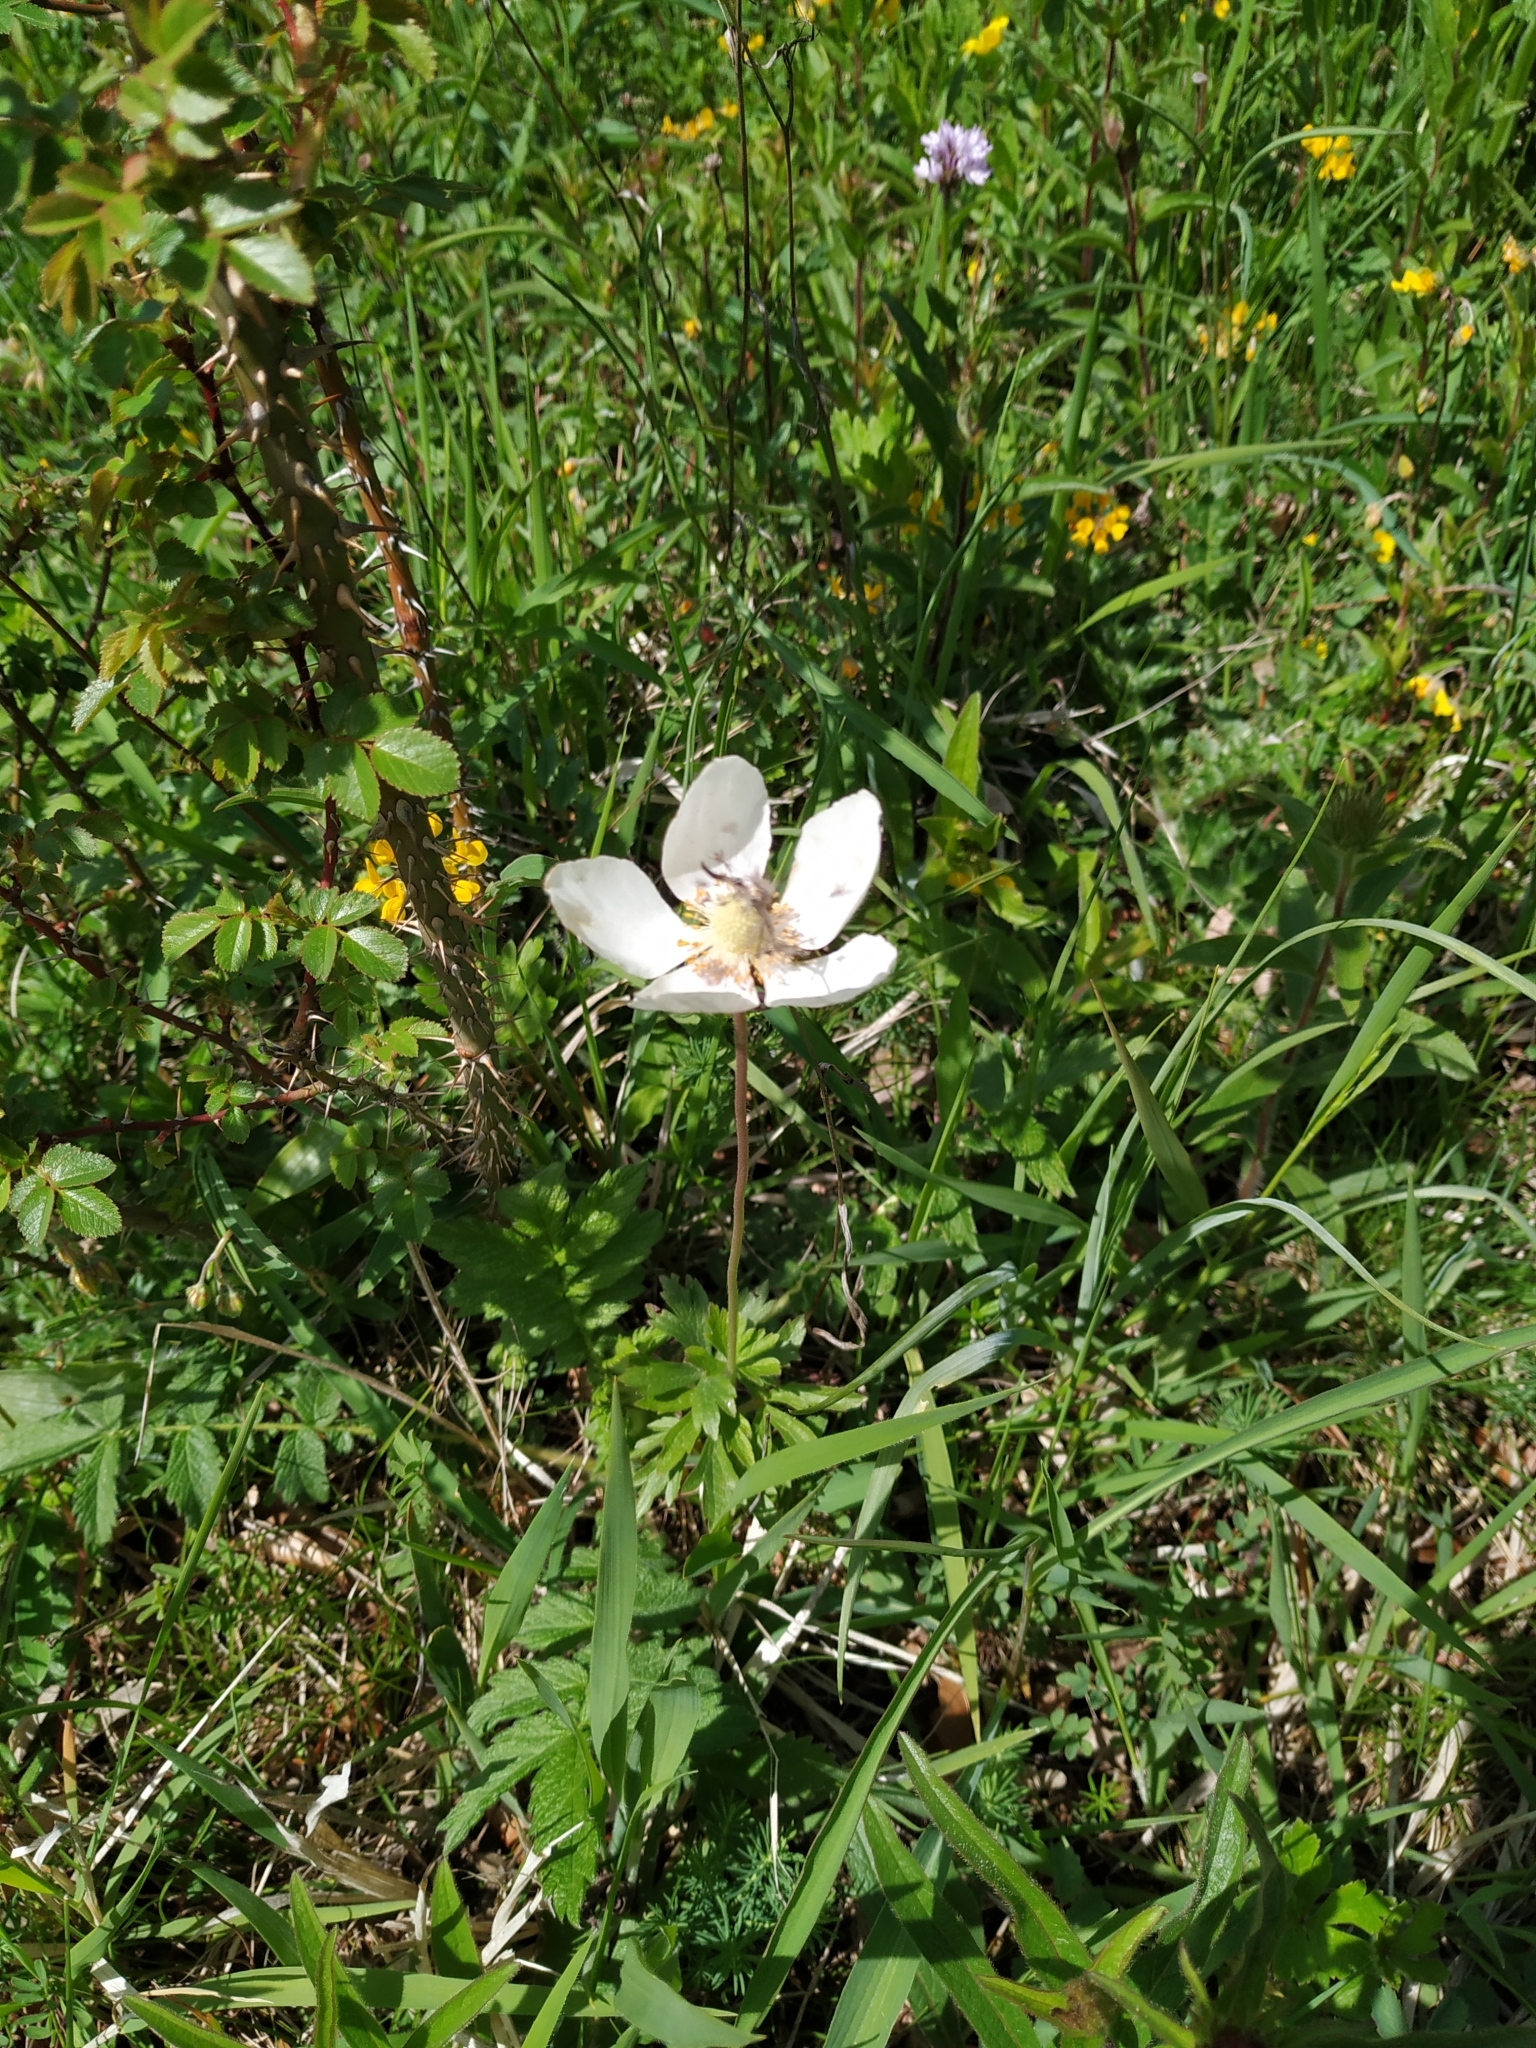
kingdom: Plantae
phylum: Tracheophyta
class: Magnoliopsida
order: Ranunculales
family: Ranunculaceae
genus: Anemone
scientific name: Anemone sylvestris
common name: Snowdrop anemone
